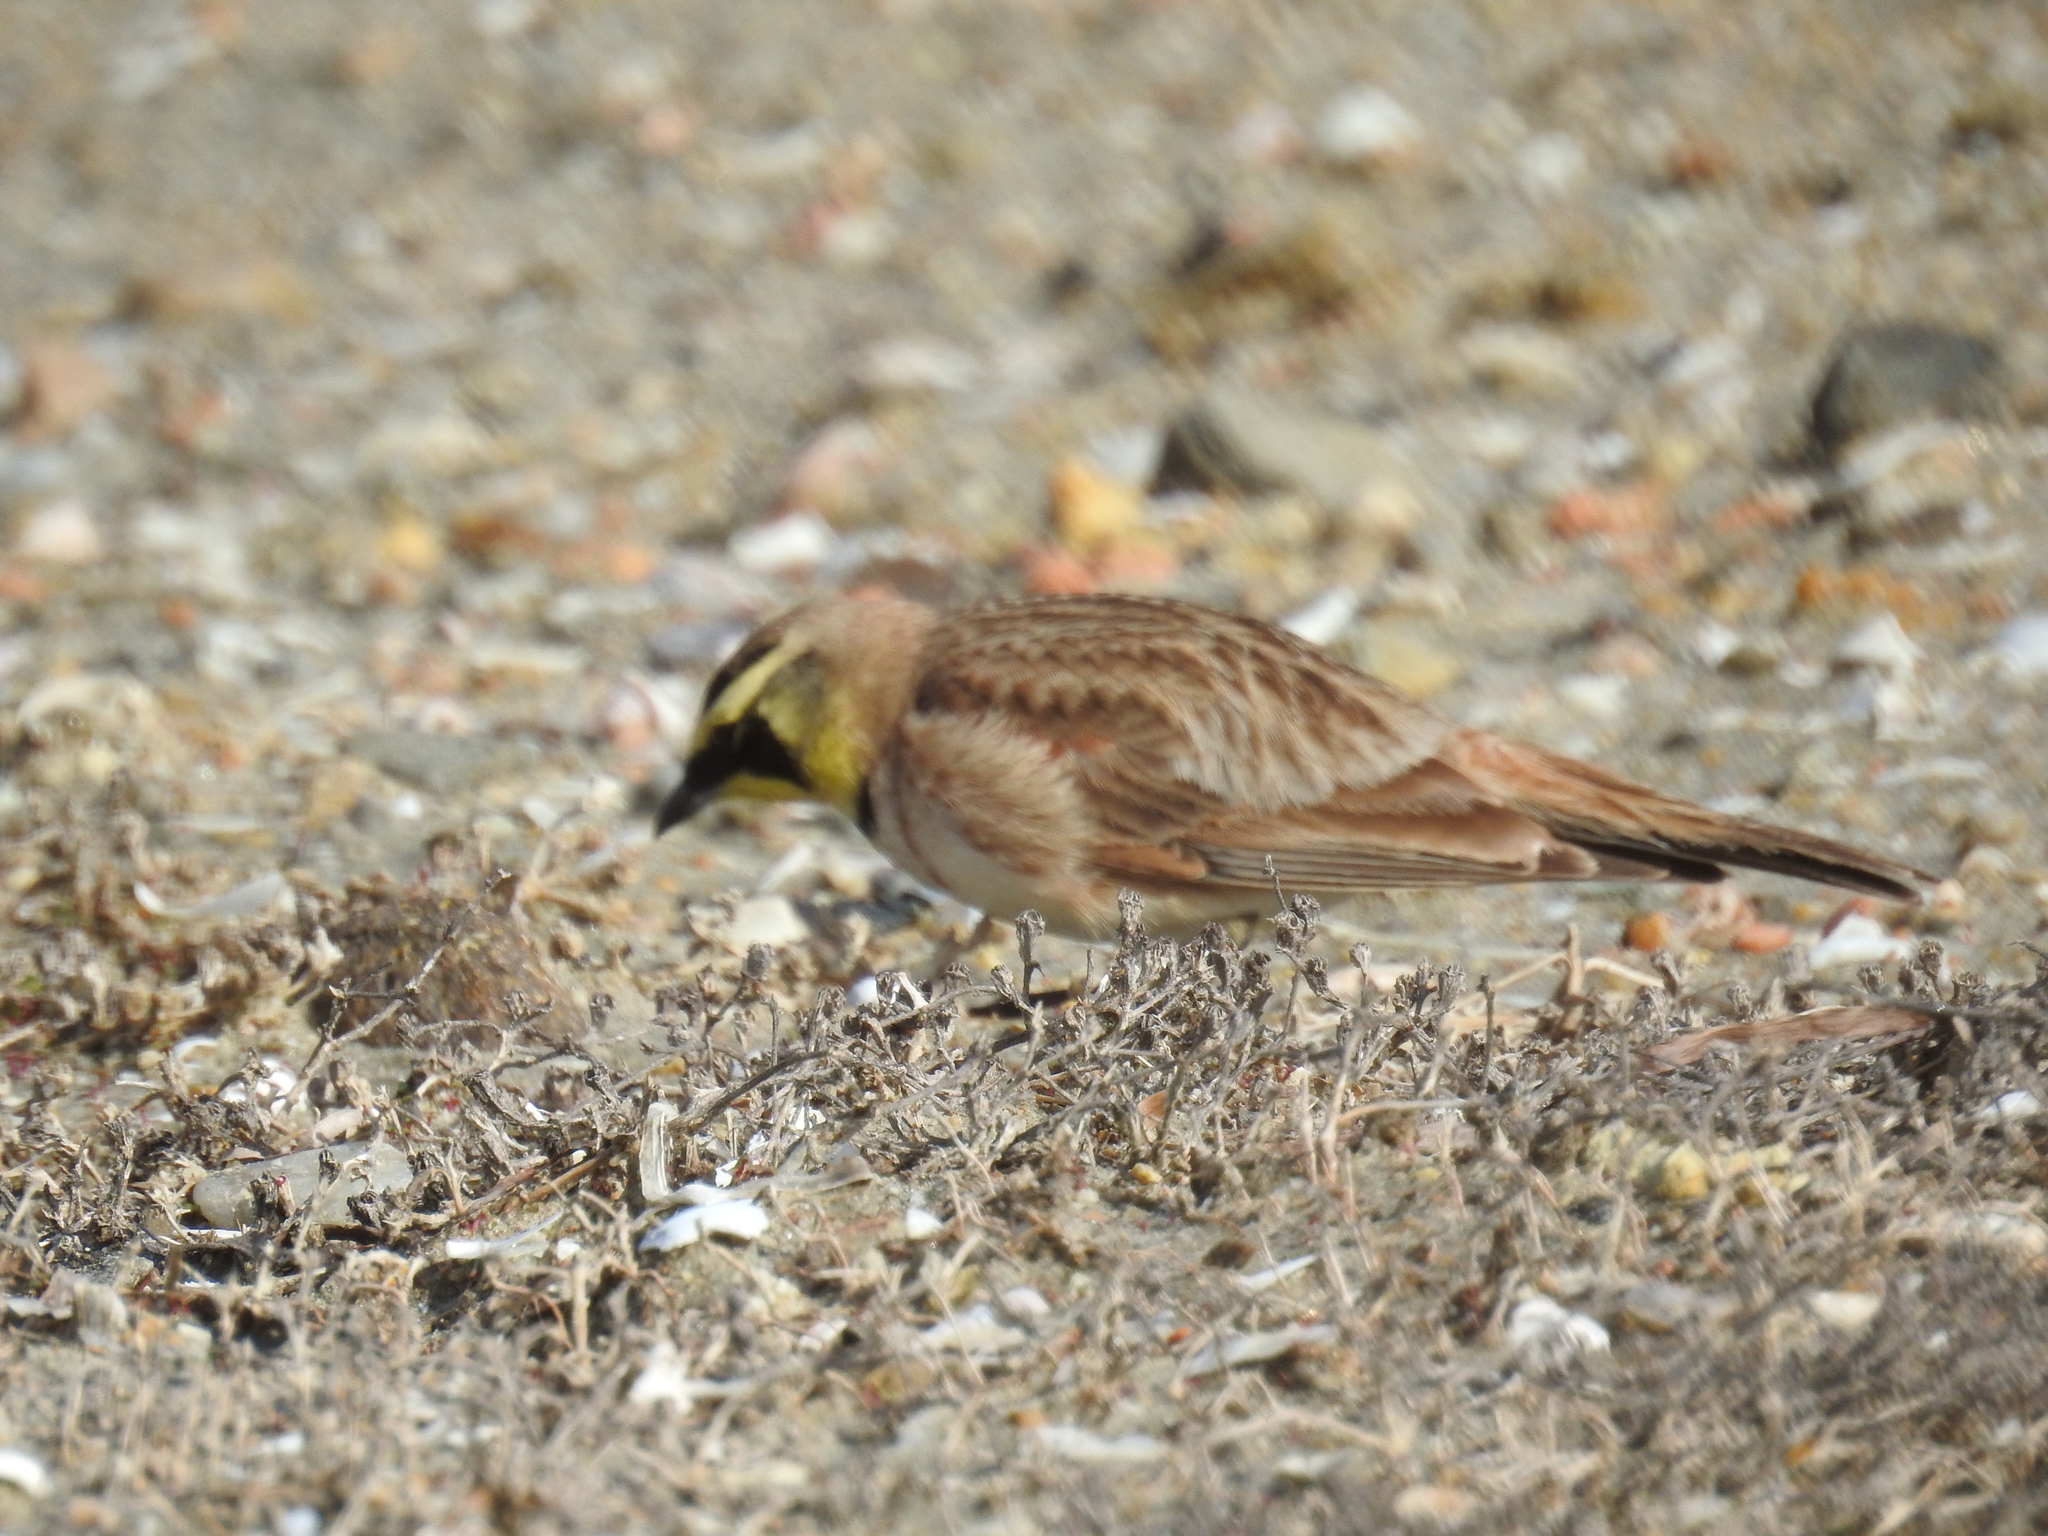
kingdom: Animalia
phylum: Chordata
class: Aves
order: Passeriformes
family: Alaudidae
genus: Eremophila
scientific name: Eremophila alpestris
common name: Horned lark
